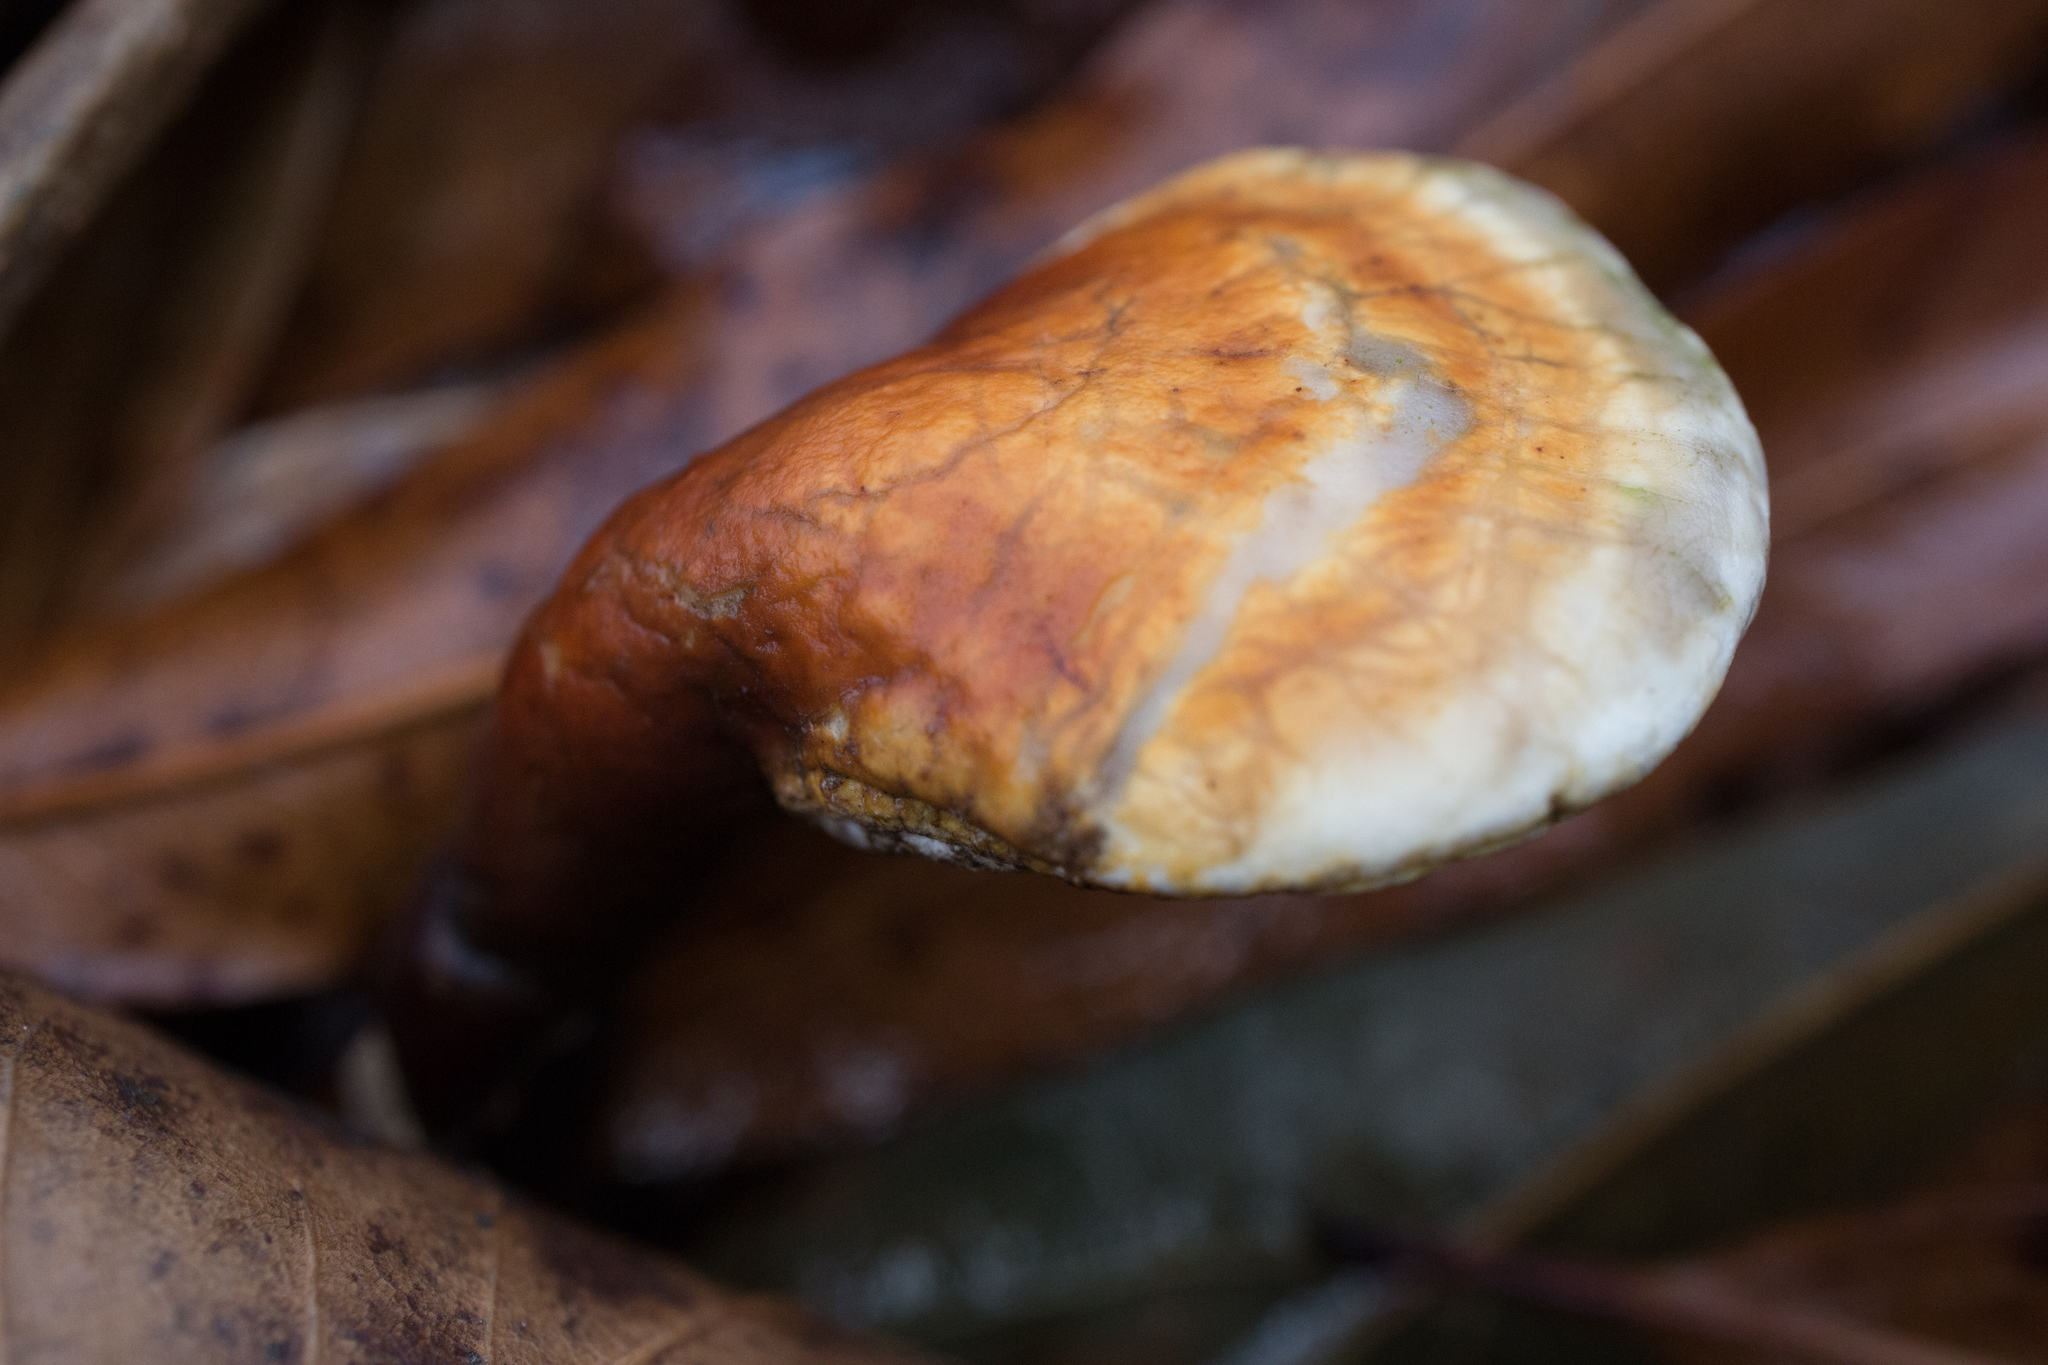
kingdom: Fungi
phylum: Basidiomycota
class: Agaricomycetes
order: Polyporales
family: Polyporaceae
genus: Ganoderma
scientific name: Ganoderma curtisii
